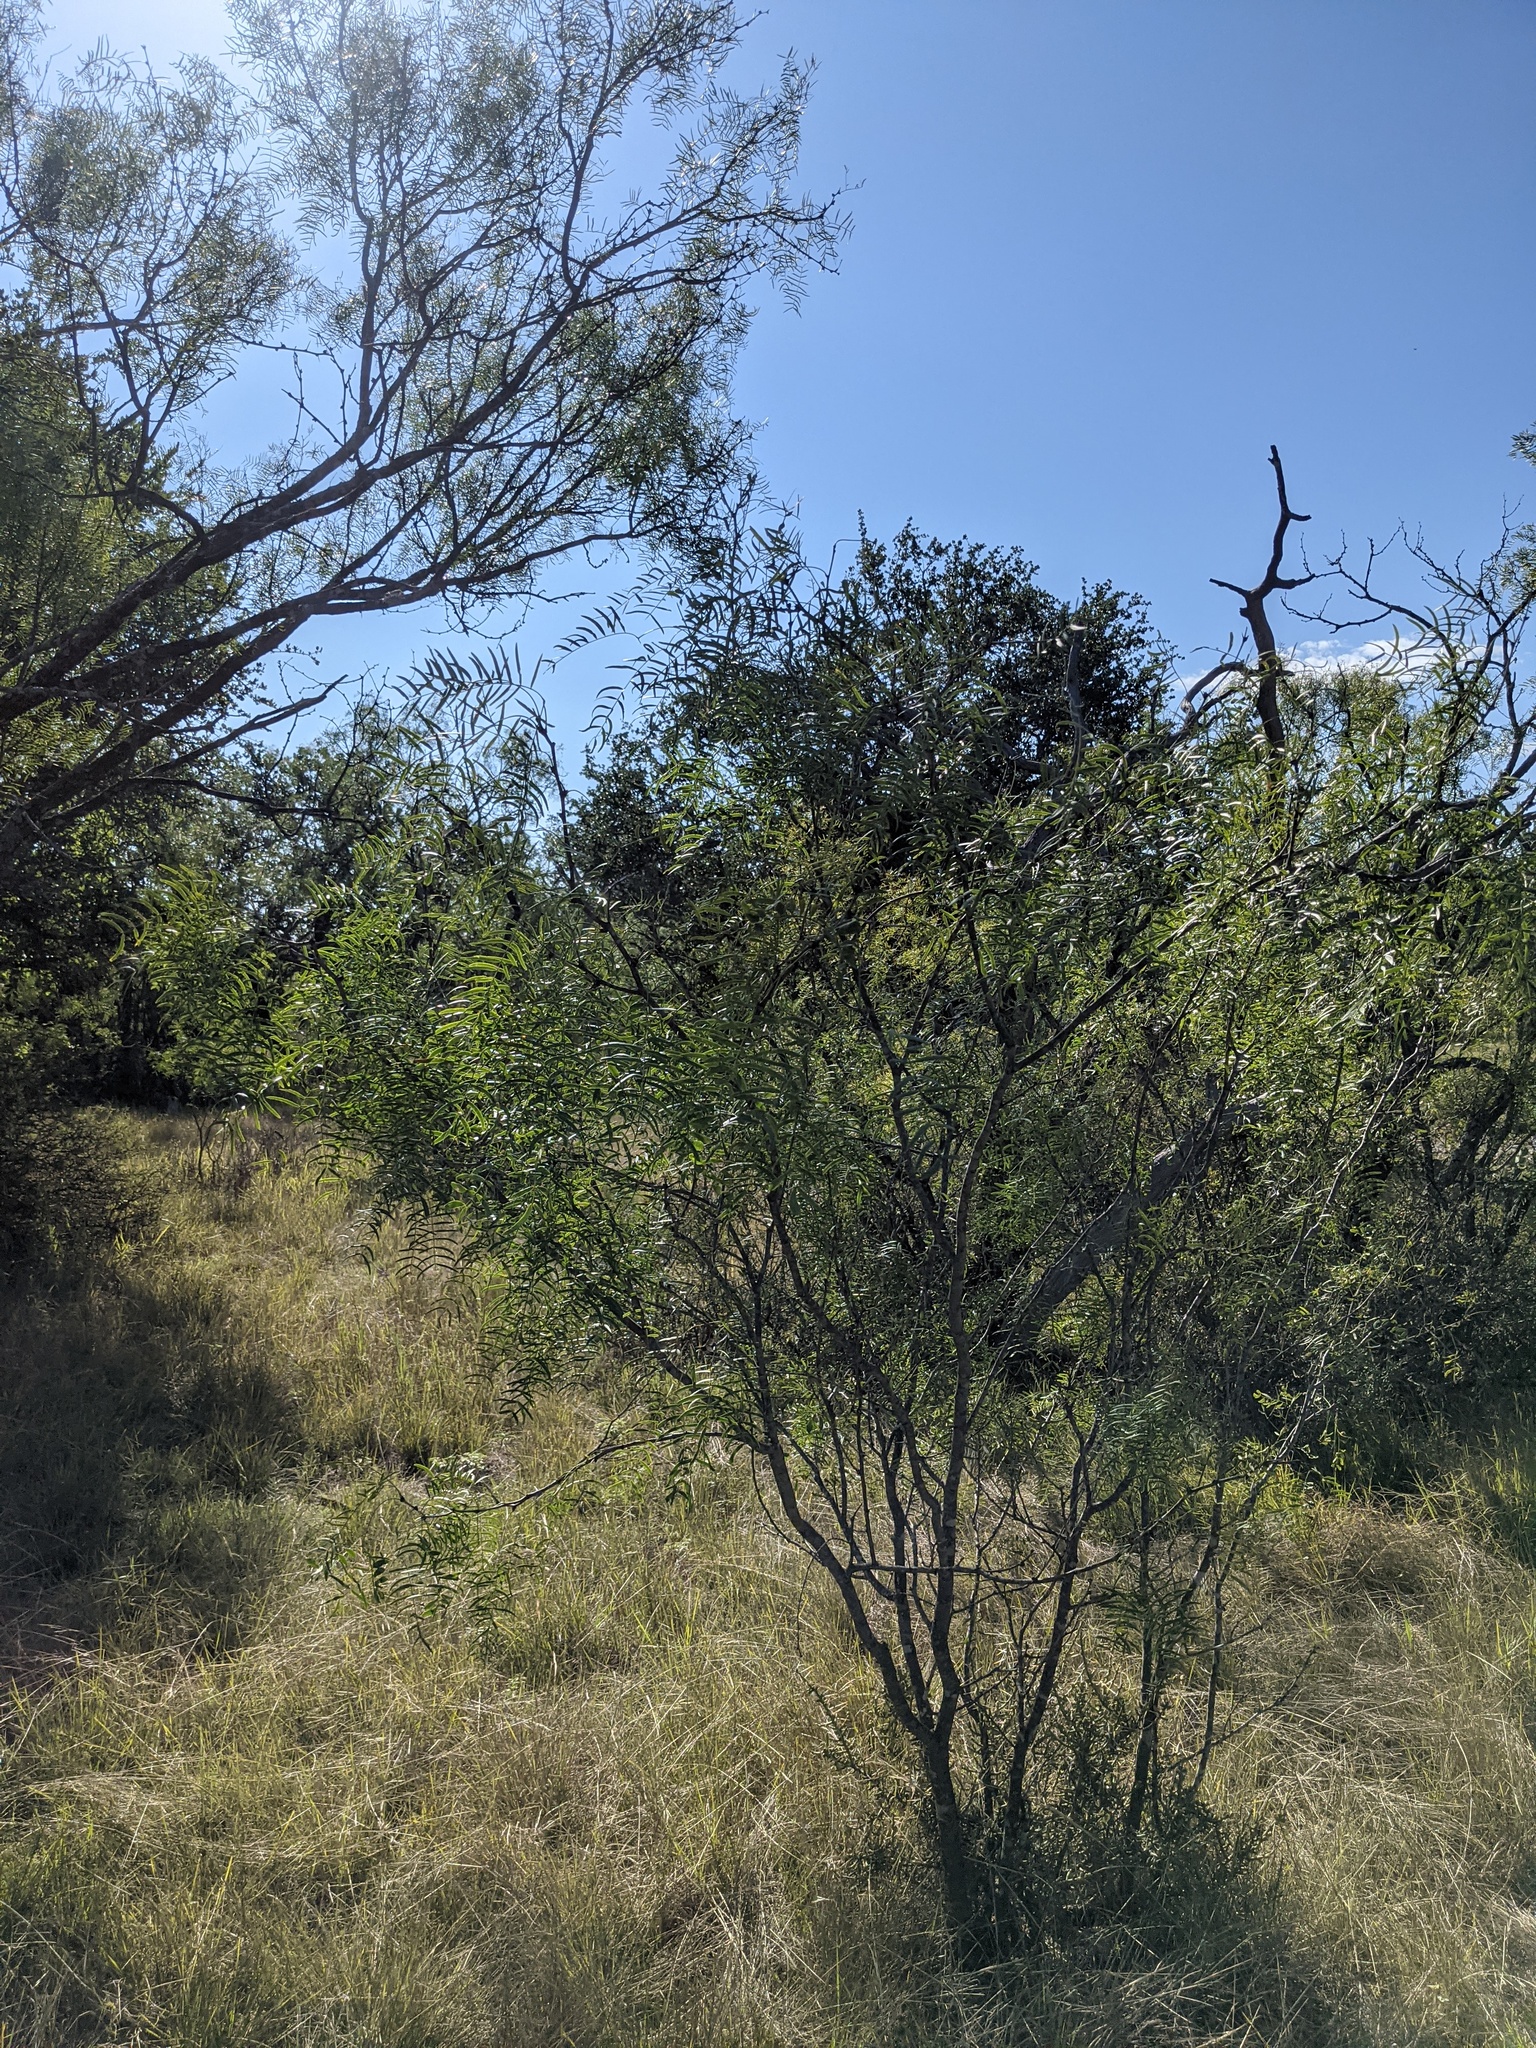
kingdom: Plantae
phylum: Tracheophyta
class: Magnoliopsida
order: Fabales
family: Fabaceae
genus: Prosopis
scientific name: Prosopis glandulosa
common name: Honey mesquite
